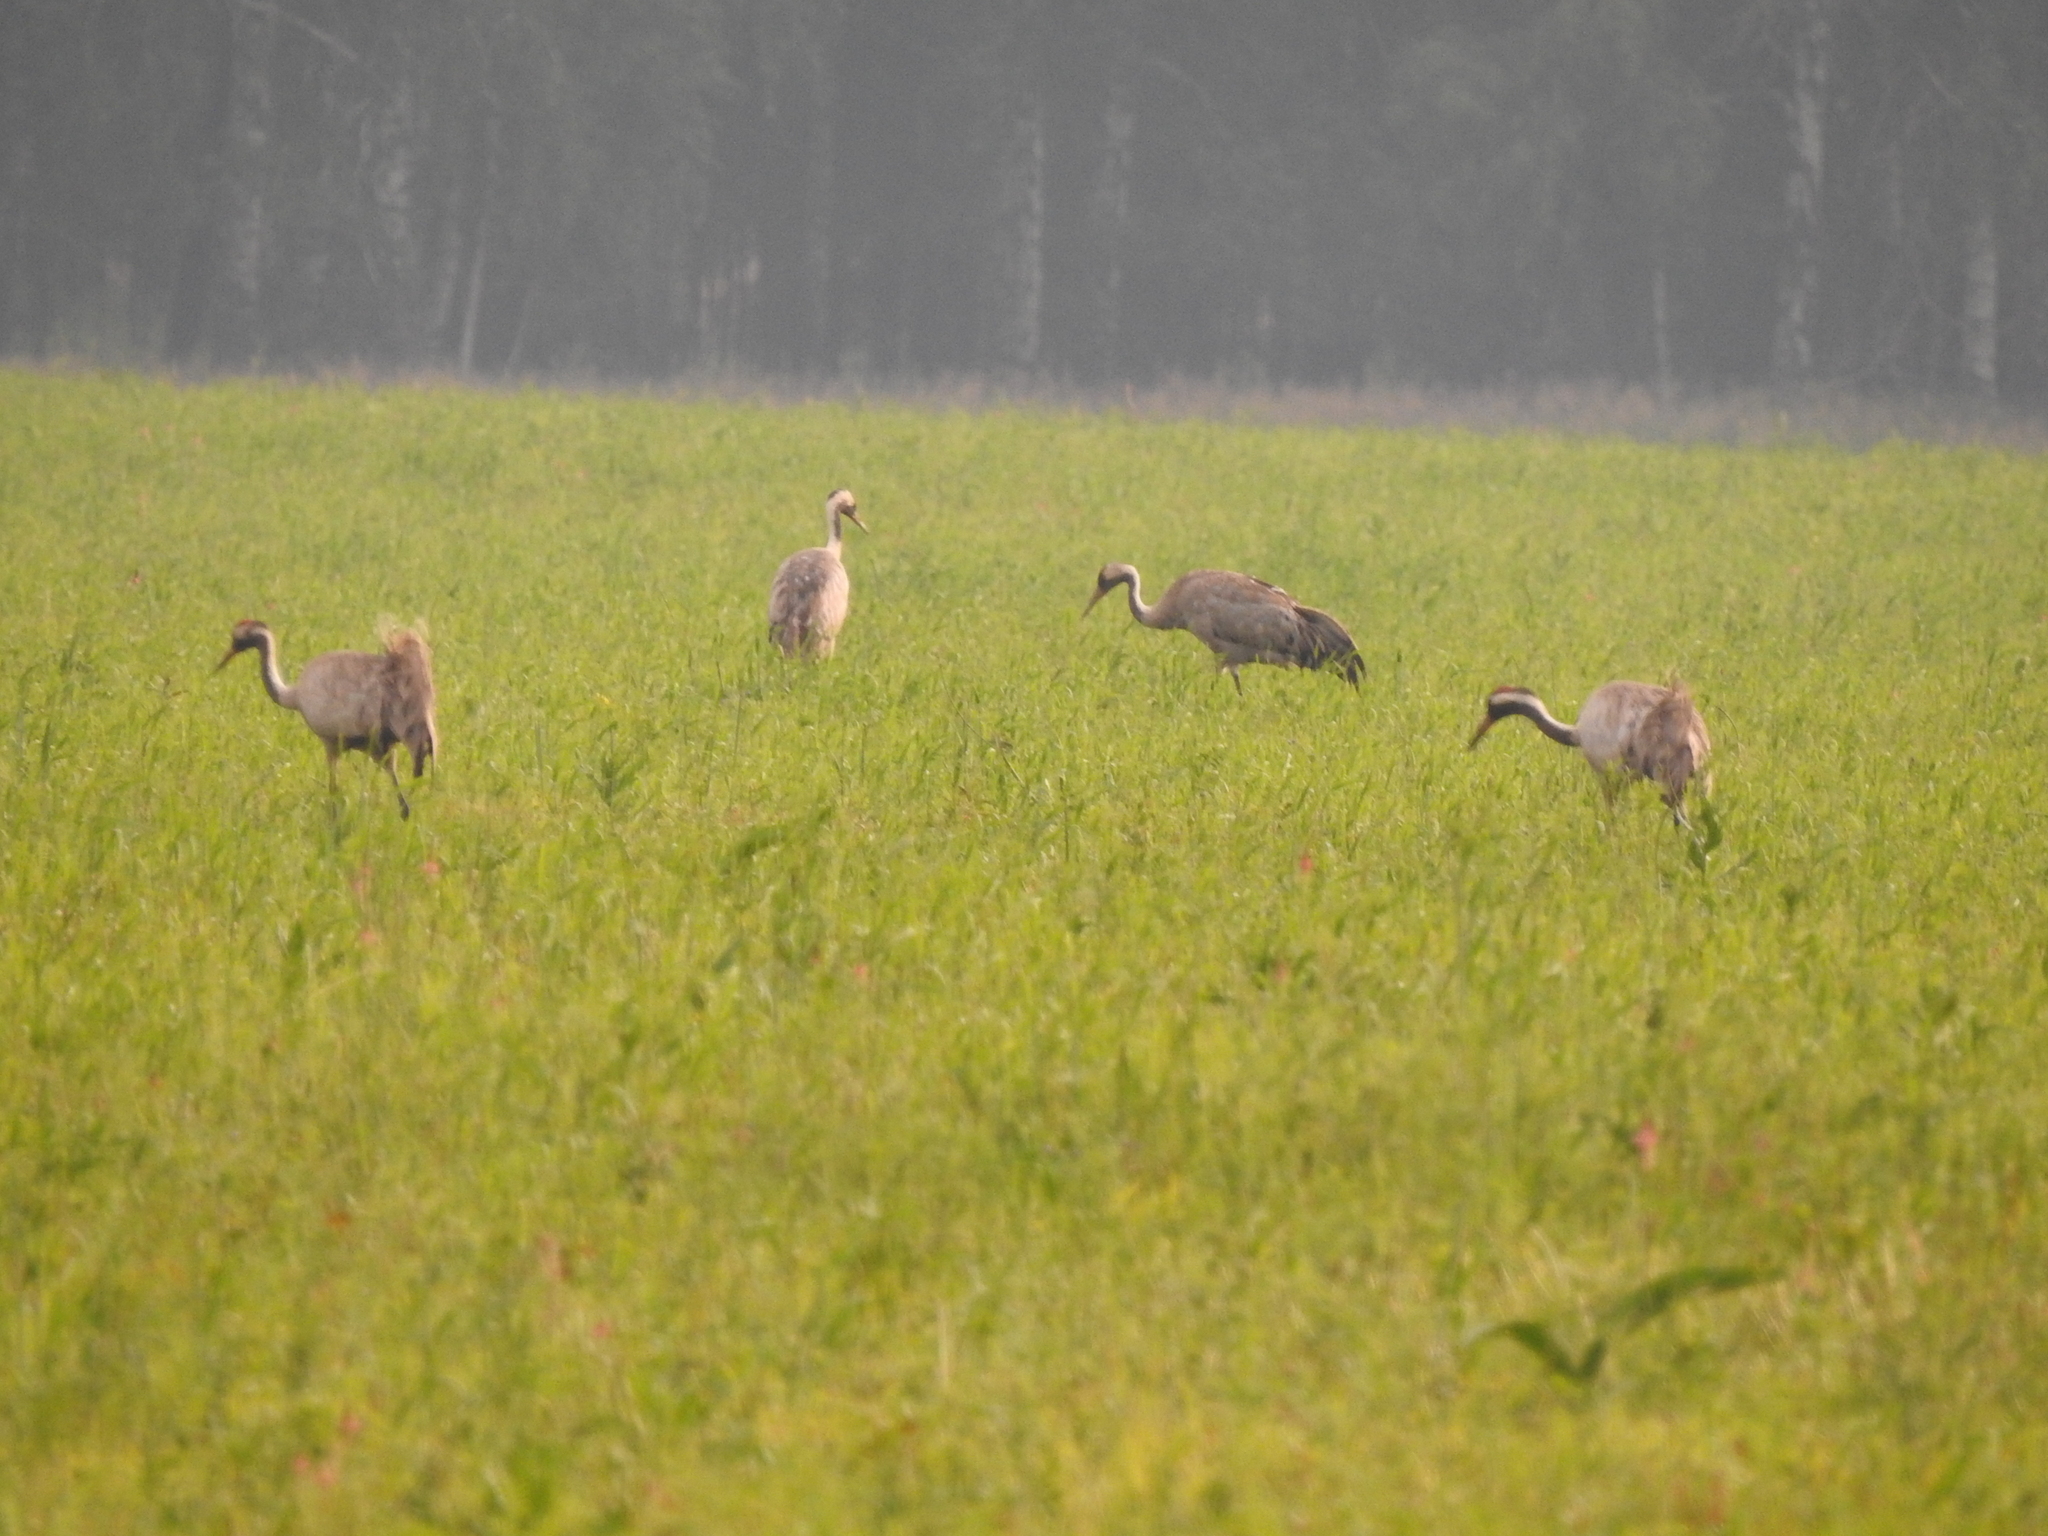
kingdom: Animalia
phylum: Chordata
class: Aves
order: Gruiformes
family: Gruidae
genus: Grus
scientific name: Grus grus
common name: Common crane
